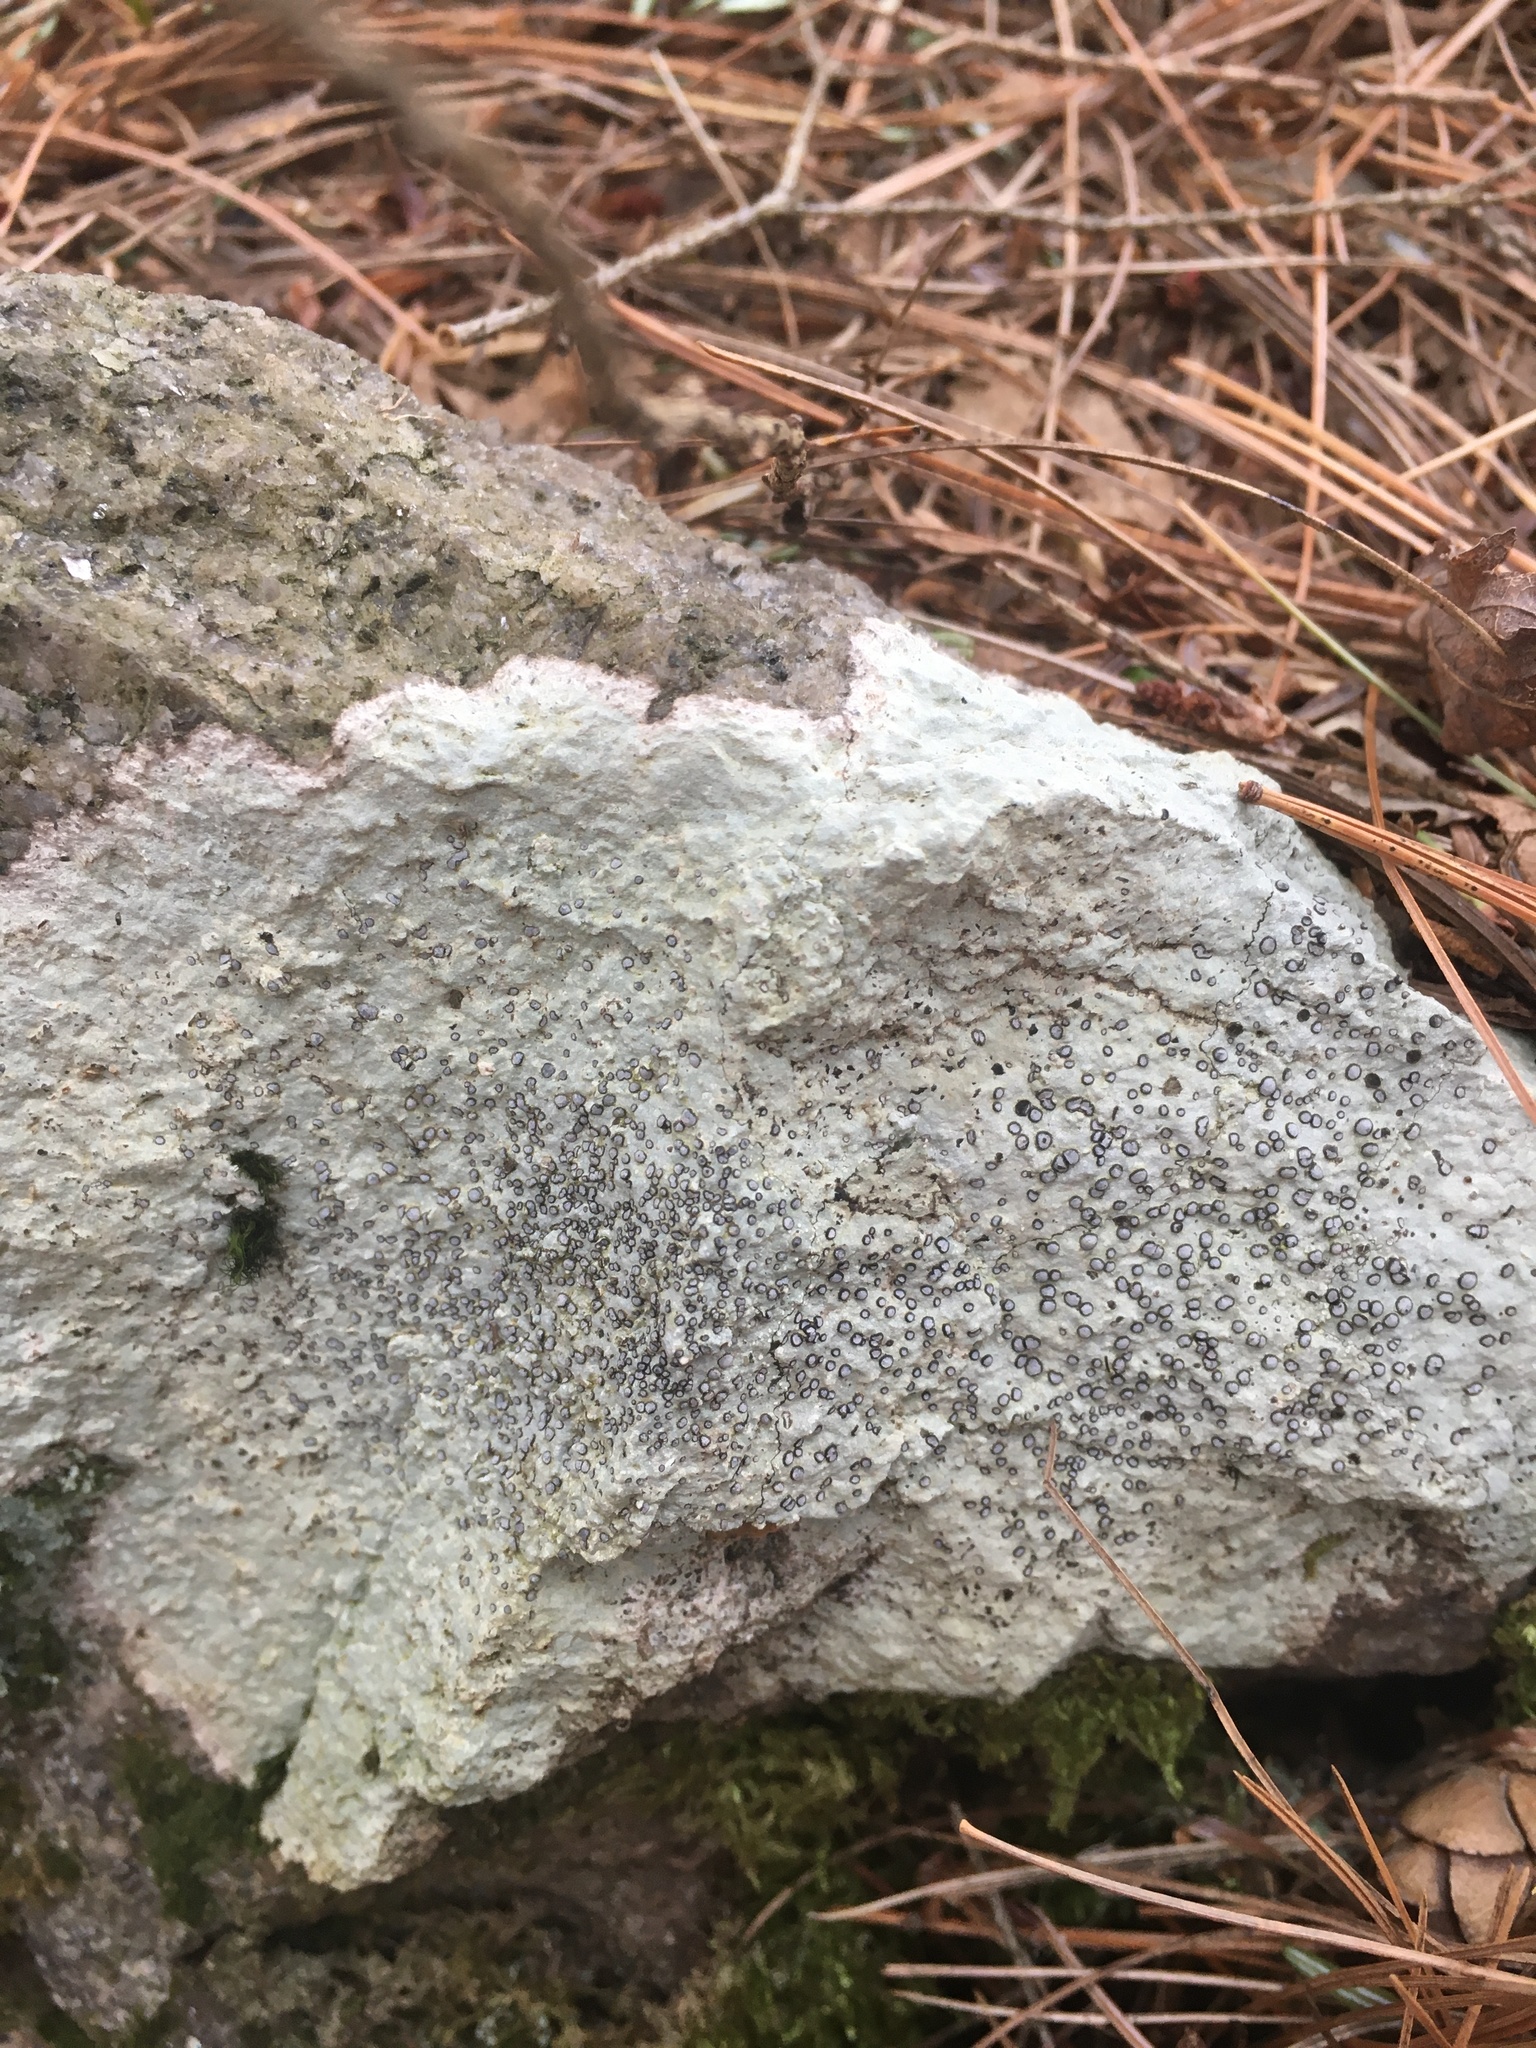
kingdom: Fungi
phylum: Ascomycota
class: Lecanoromycetes
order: Lecideales
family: Lecideaceae
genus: Porpidia
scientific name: Porpidia albocaerulescens
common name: Smokey-eyed boulder lichen
